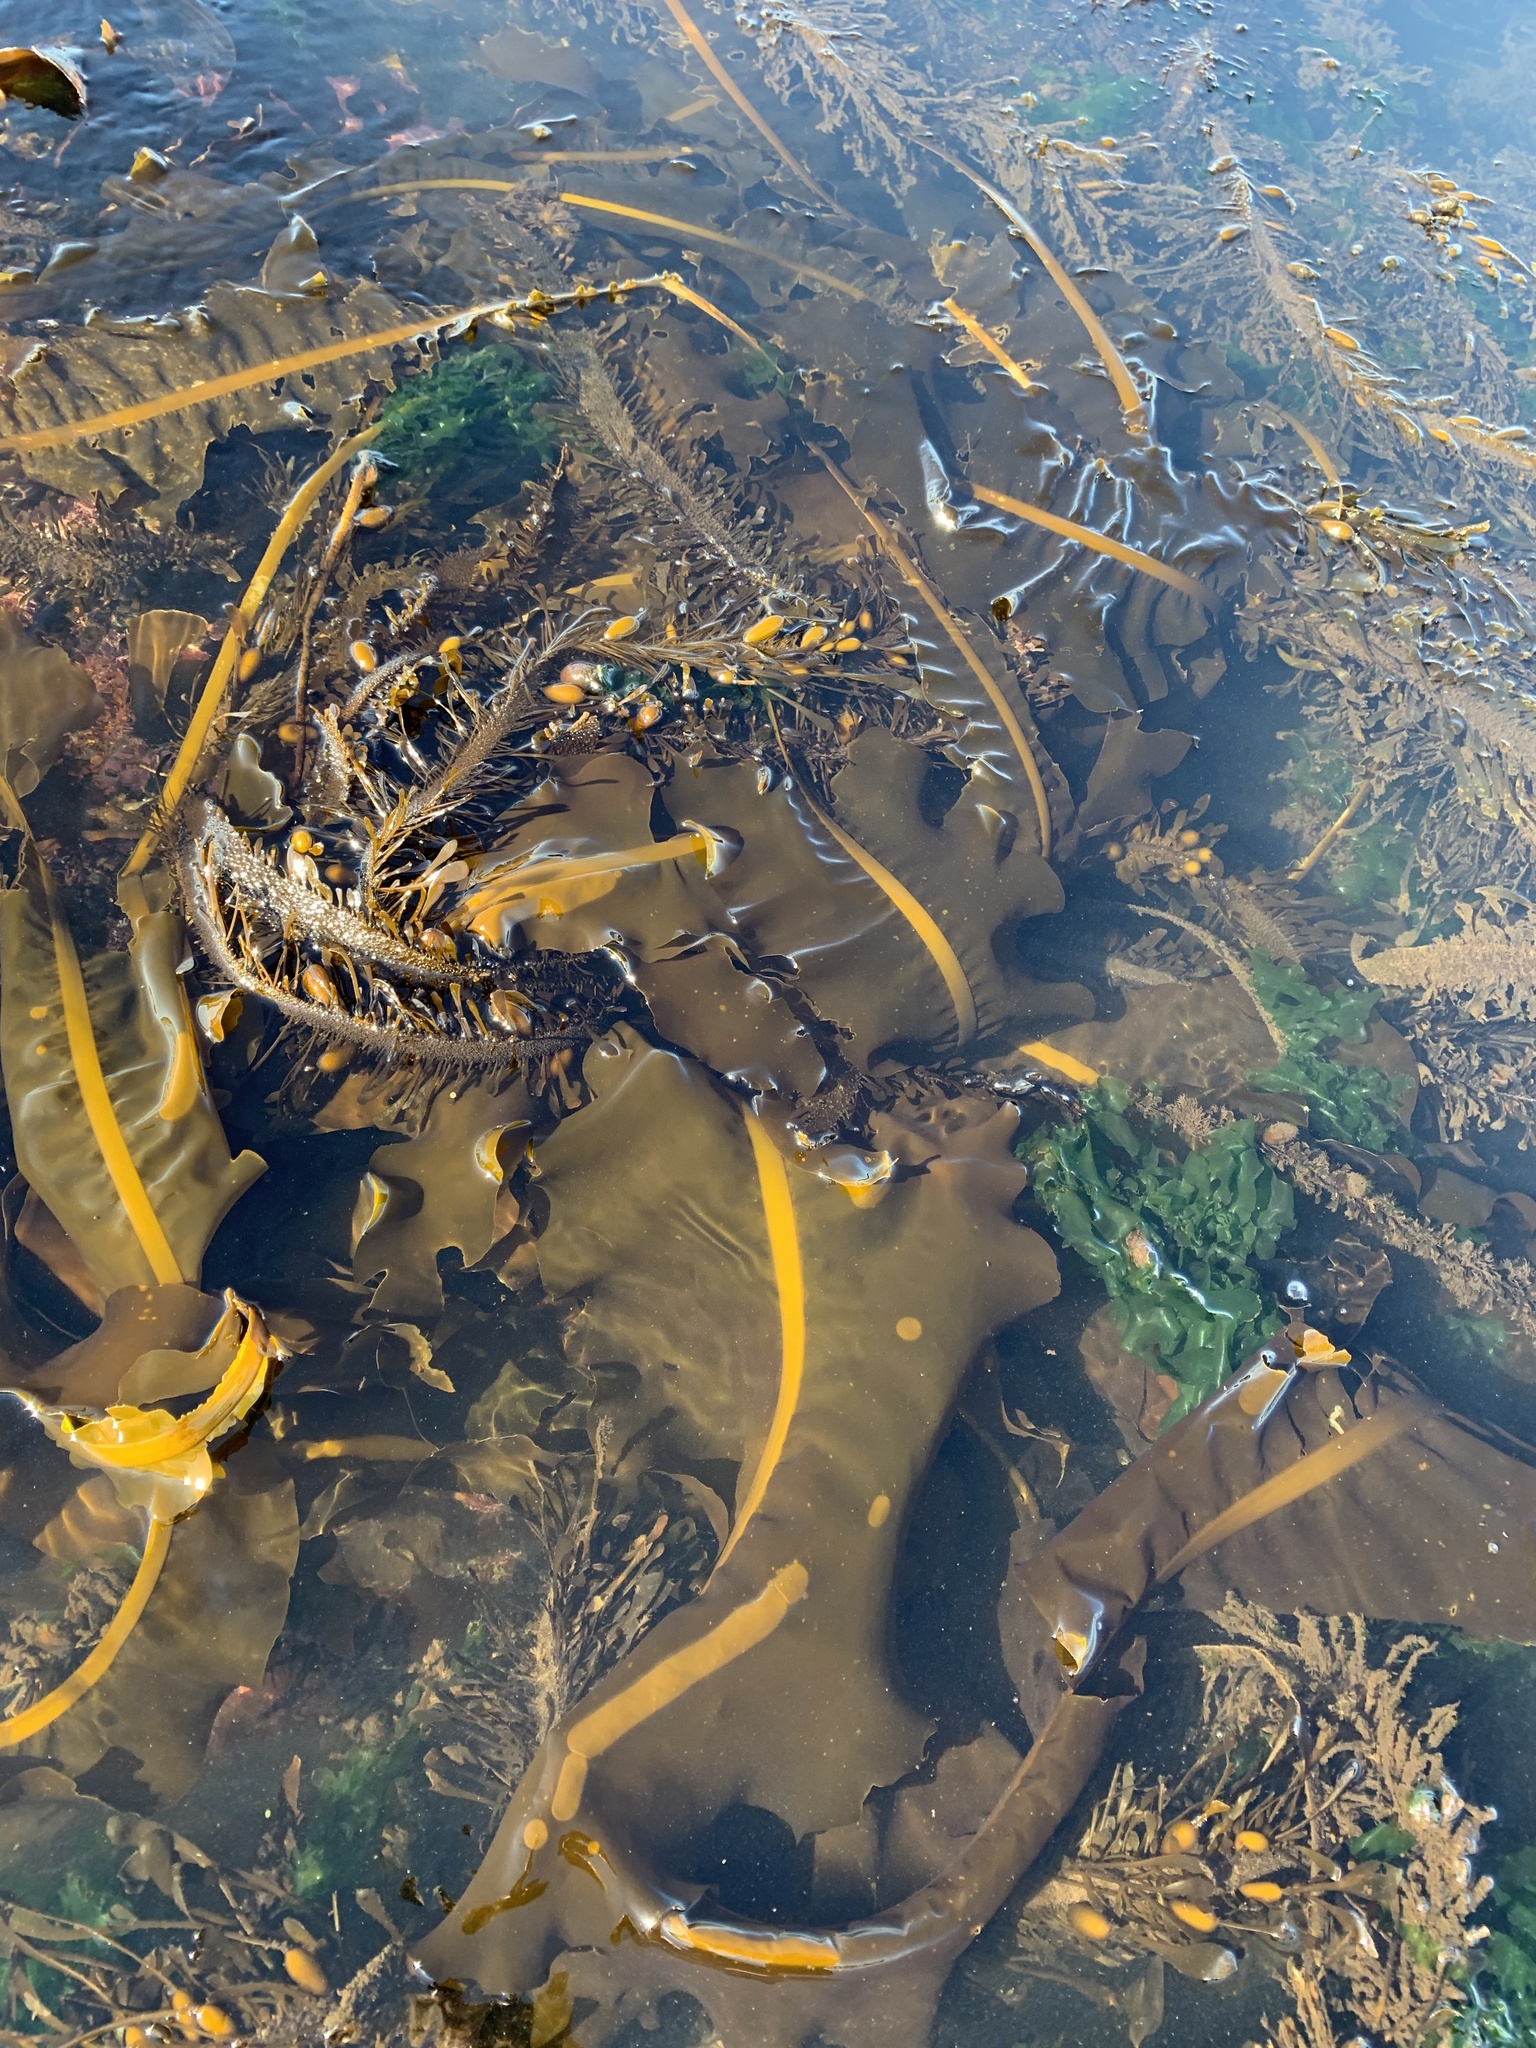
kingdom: Chromista
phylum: Ochrophyta
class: Phaeophyceae
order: Laminariales
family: Alariaceae
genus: Alaria
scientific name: Alaria marginata
